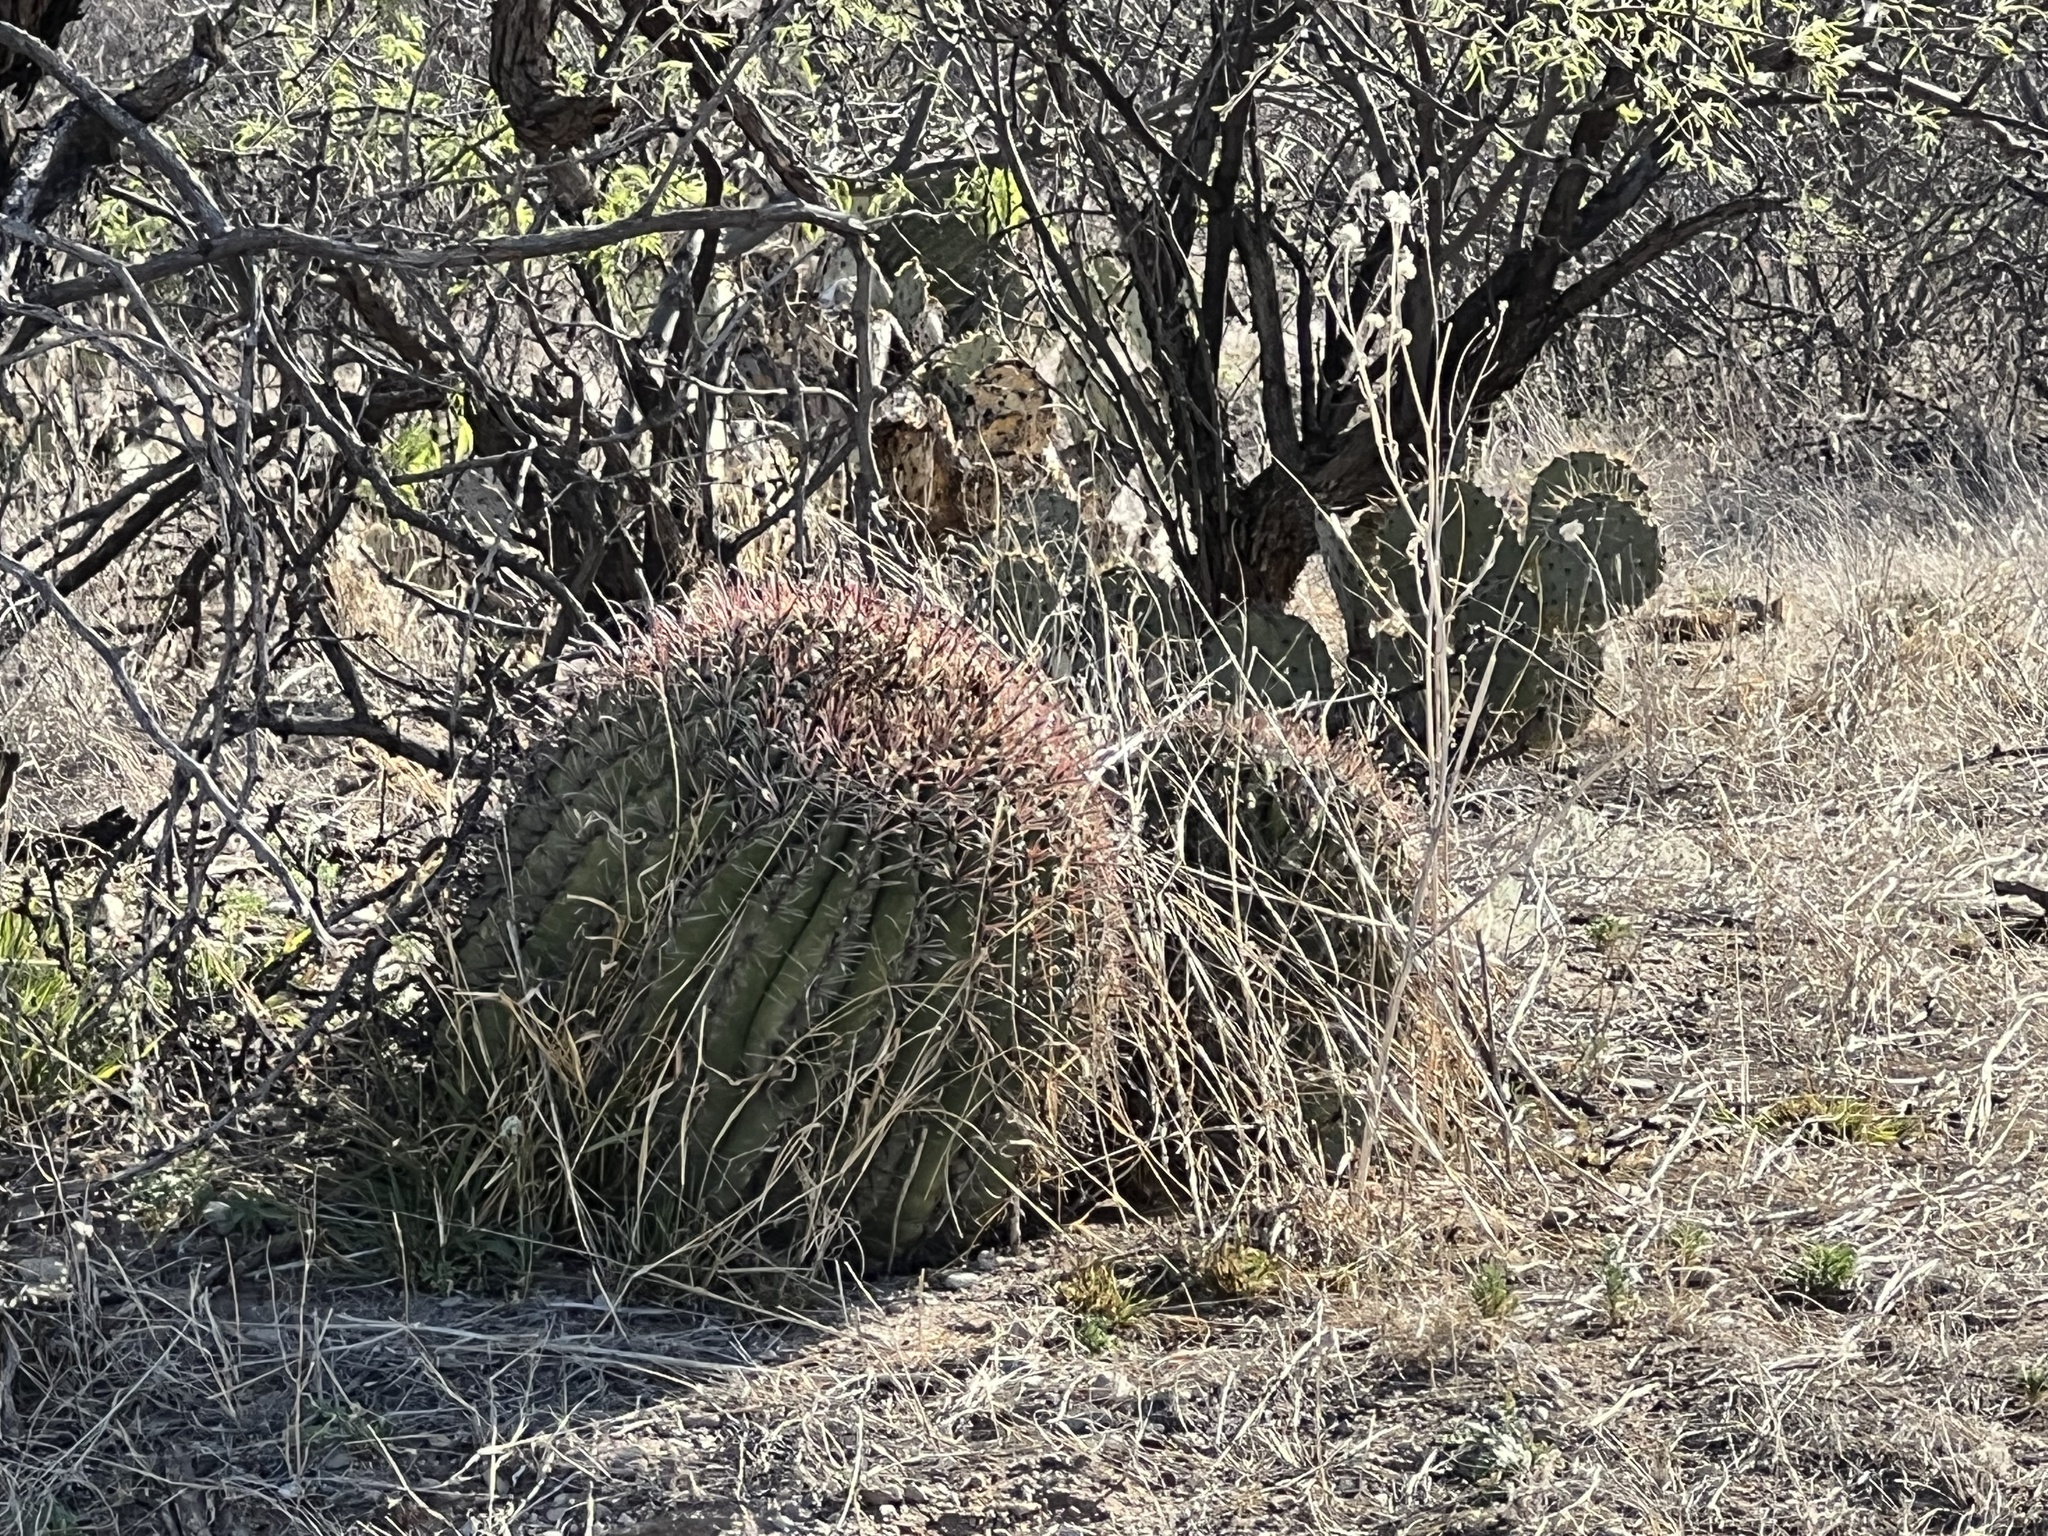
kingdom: Plantae
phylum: Tracheophyta
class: Magnoliopsida
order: Caryophyllales
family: Cactaceae
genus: Ferocactus
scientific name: Ferocactus wislizeni
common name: Candy barrel cactus
